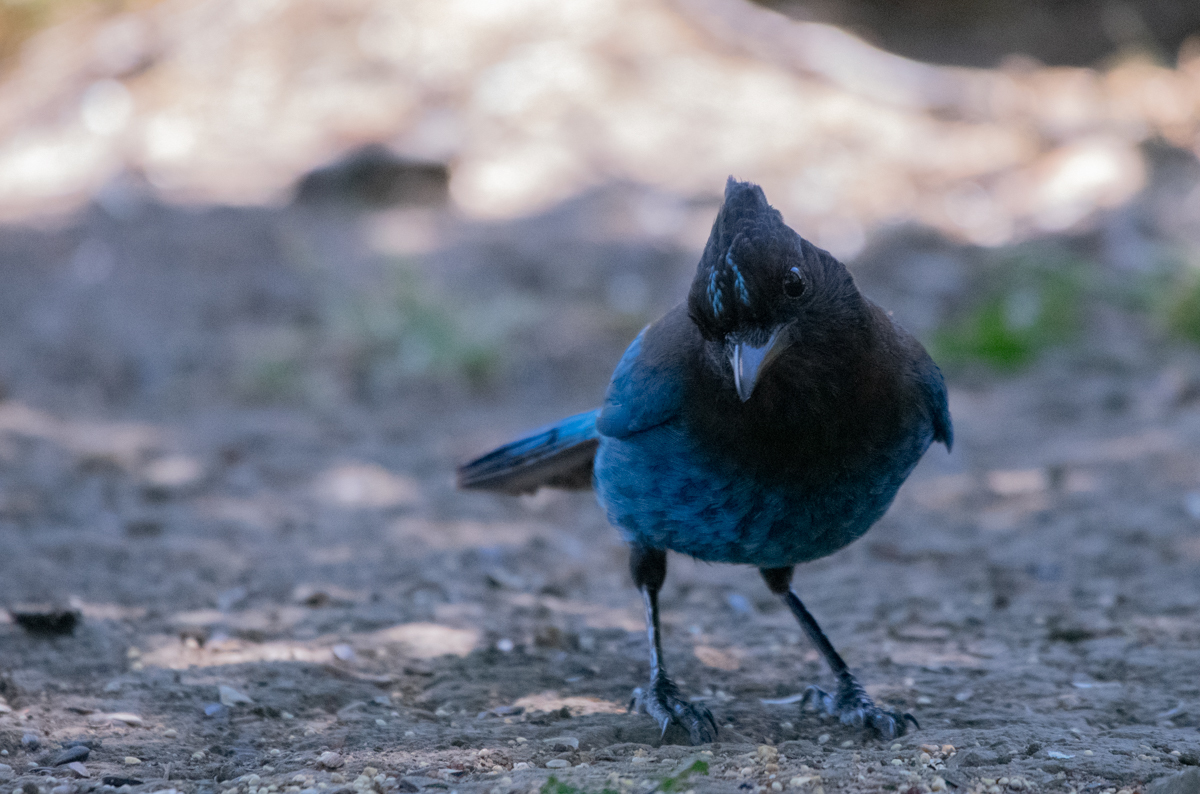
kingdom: Animalia
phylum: Chordata
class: Aves
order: Passeriformes
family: Corvidae
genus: Cyanocitta
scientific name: Cyanocitta stelleri
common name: Steller's jay
